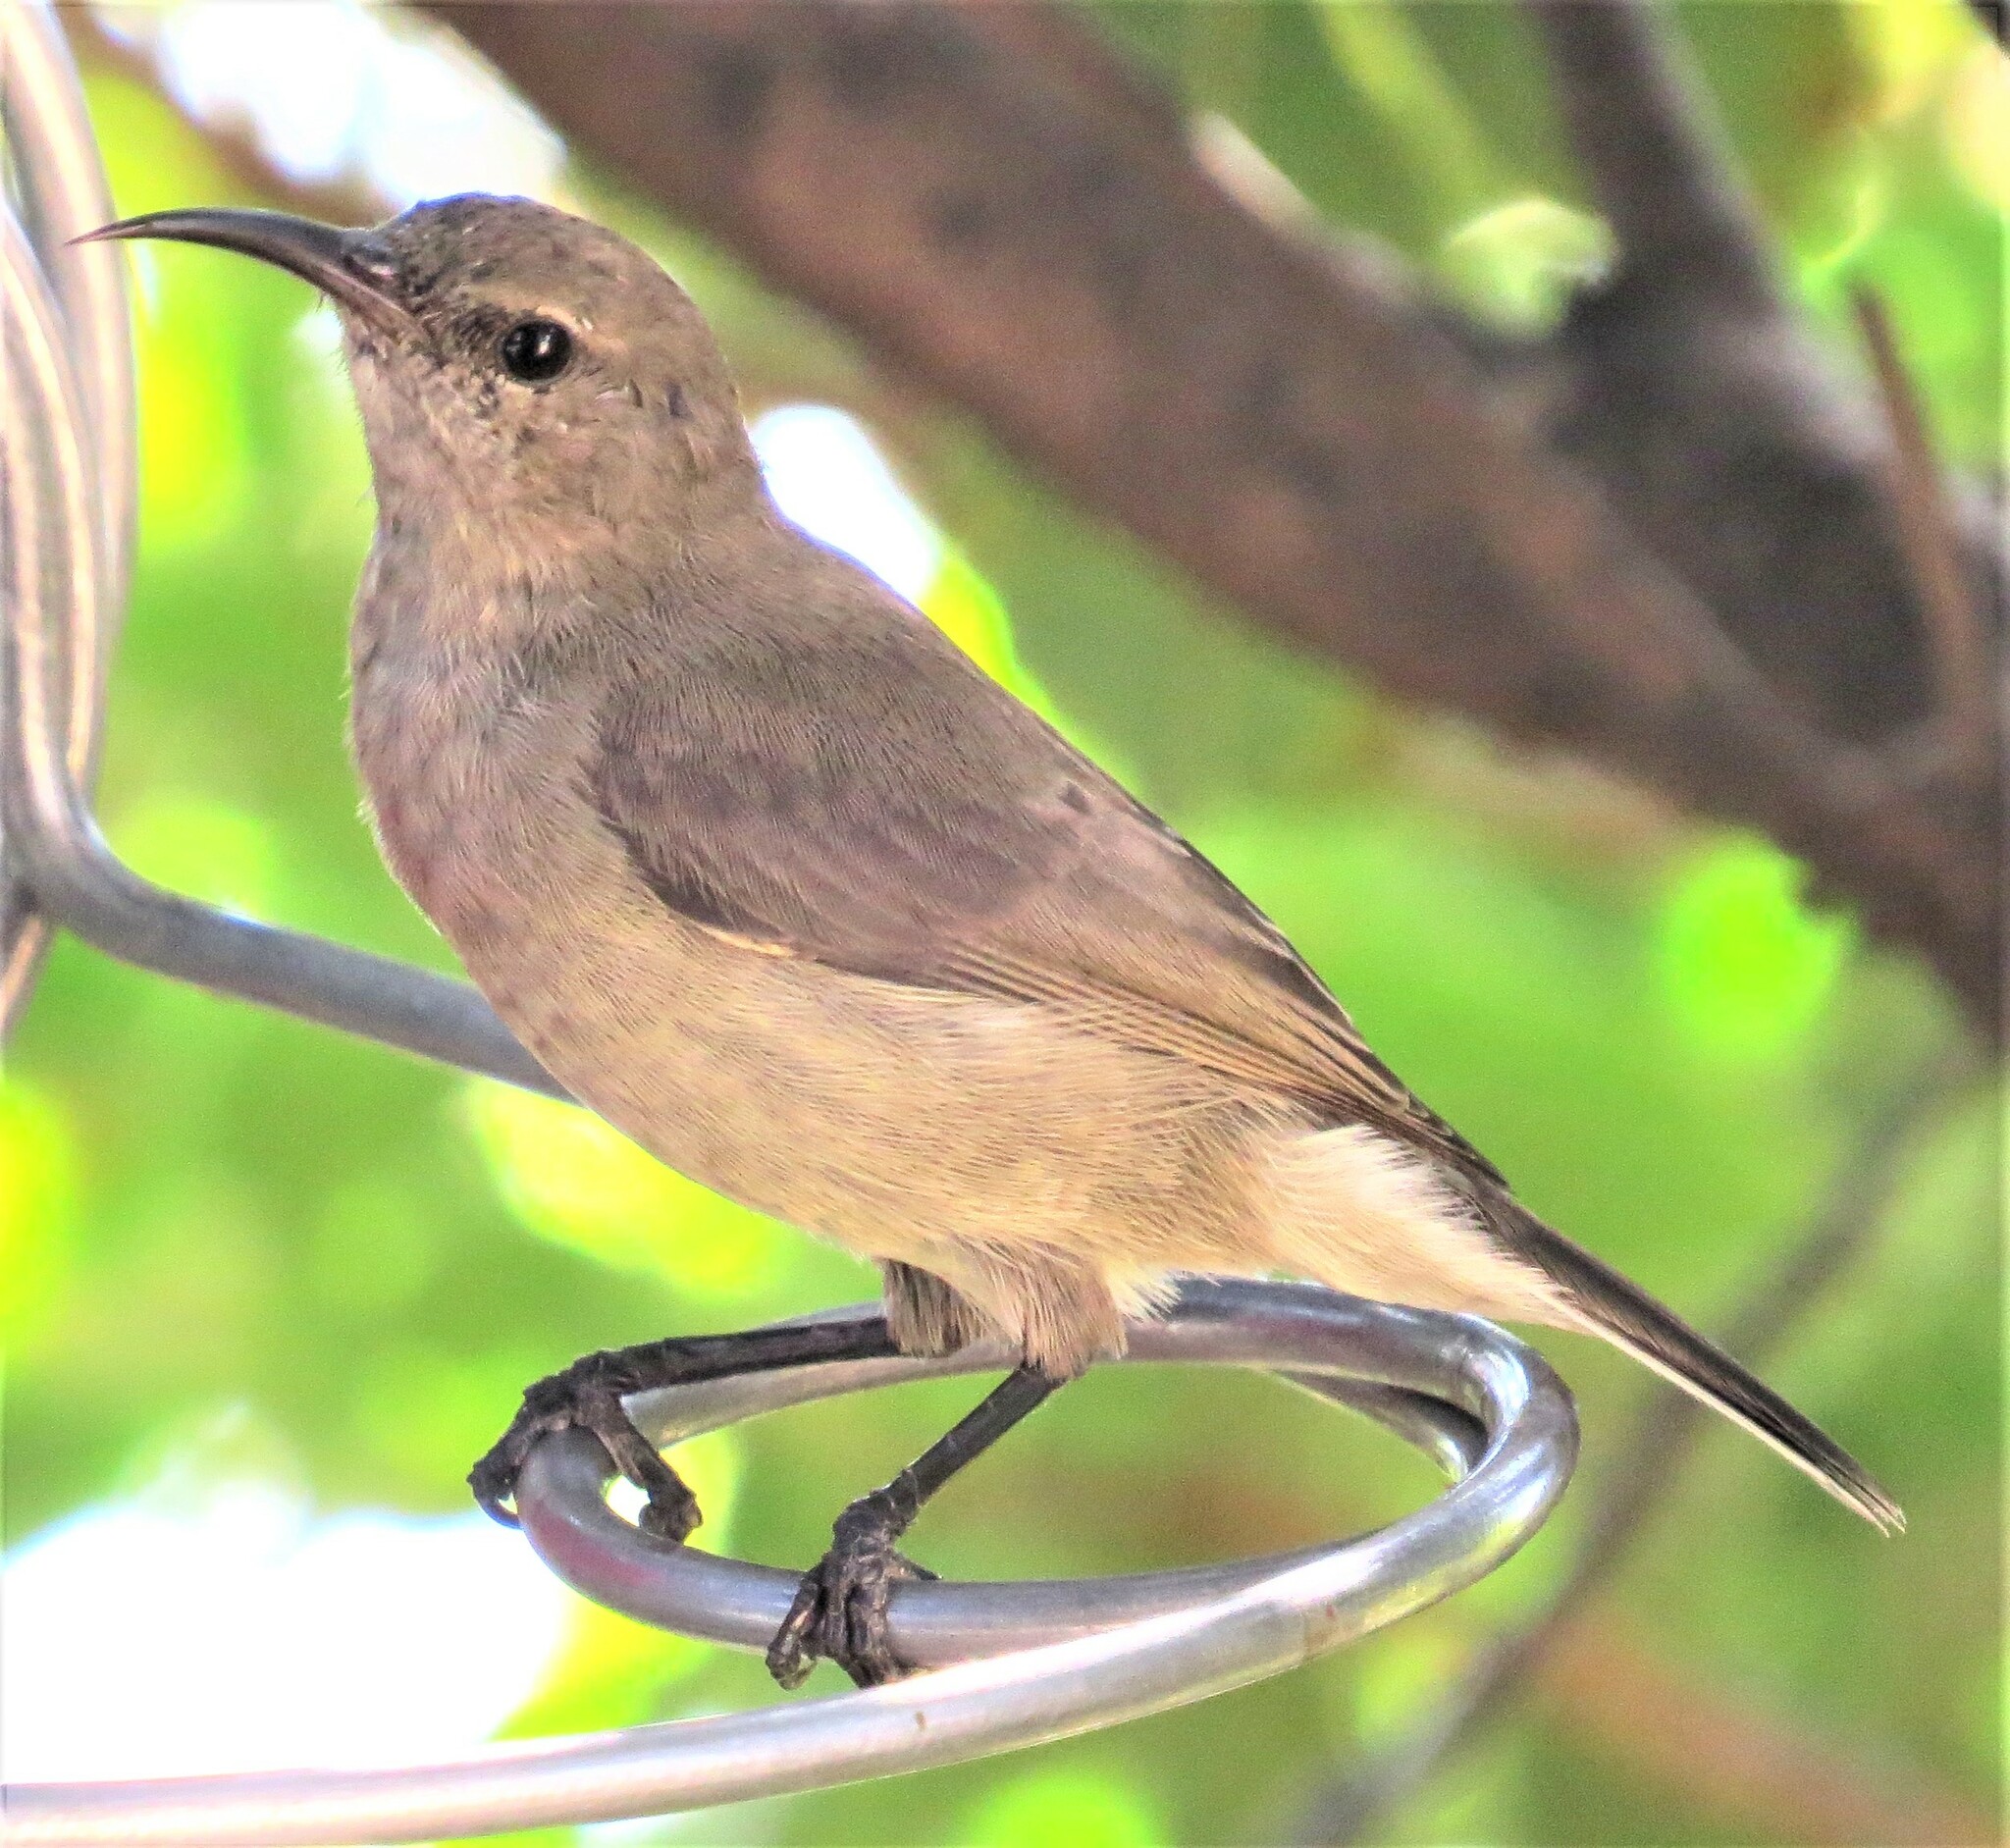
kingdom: Animalia
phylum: Chordata
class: Aves
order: Passeriformes
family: Nectariniidae
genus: Cinnyris
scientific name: Cinnyris chalybeus
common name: Southern double-collared sunbird
